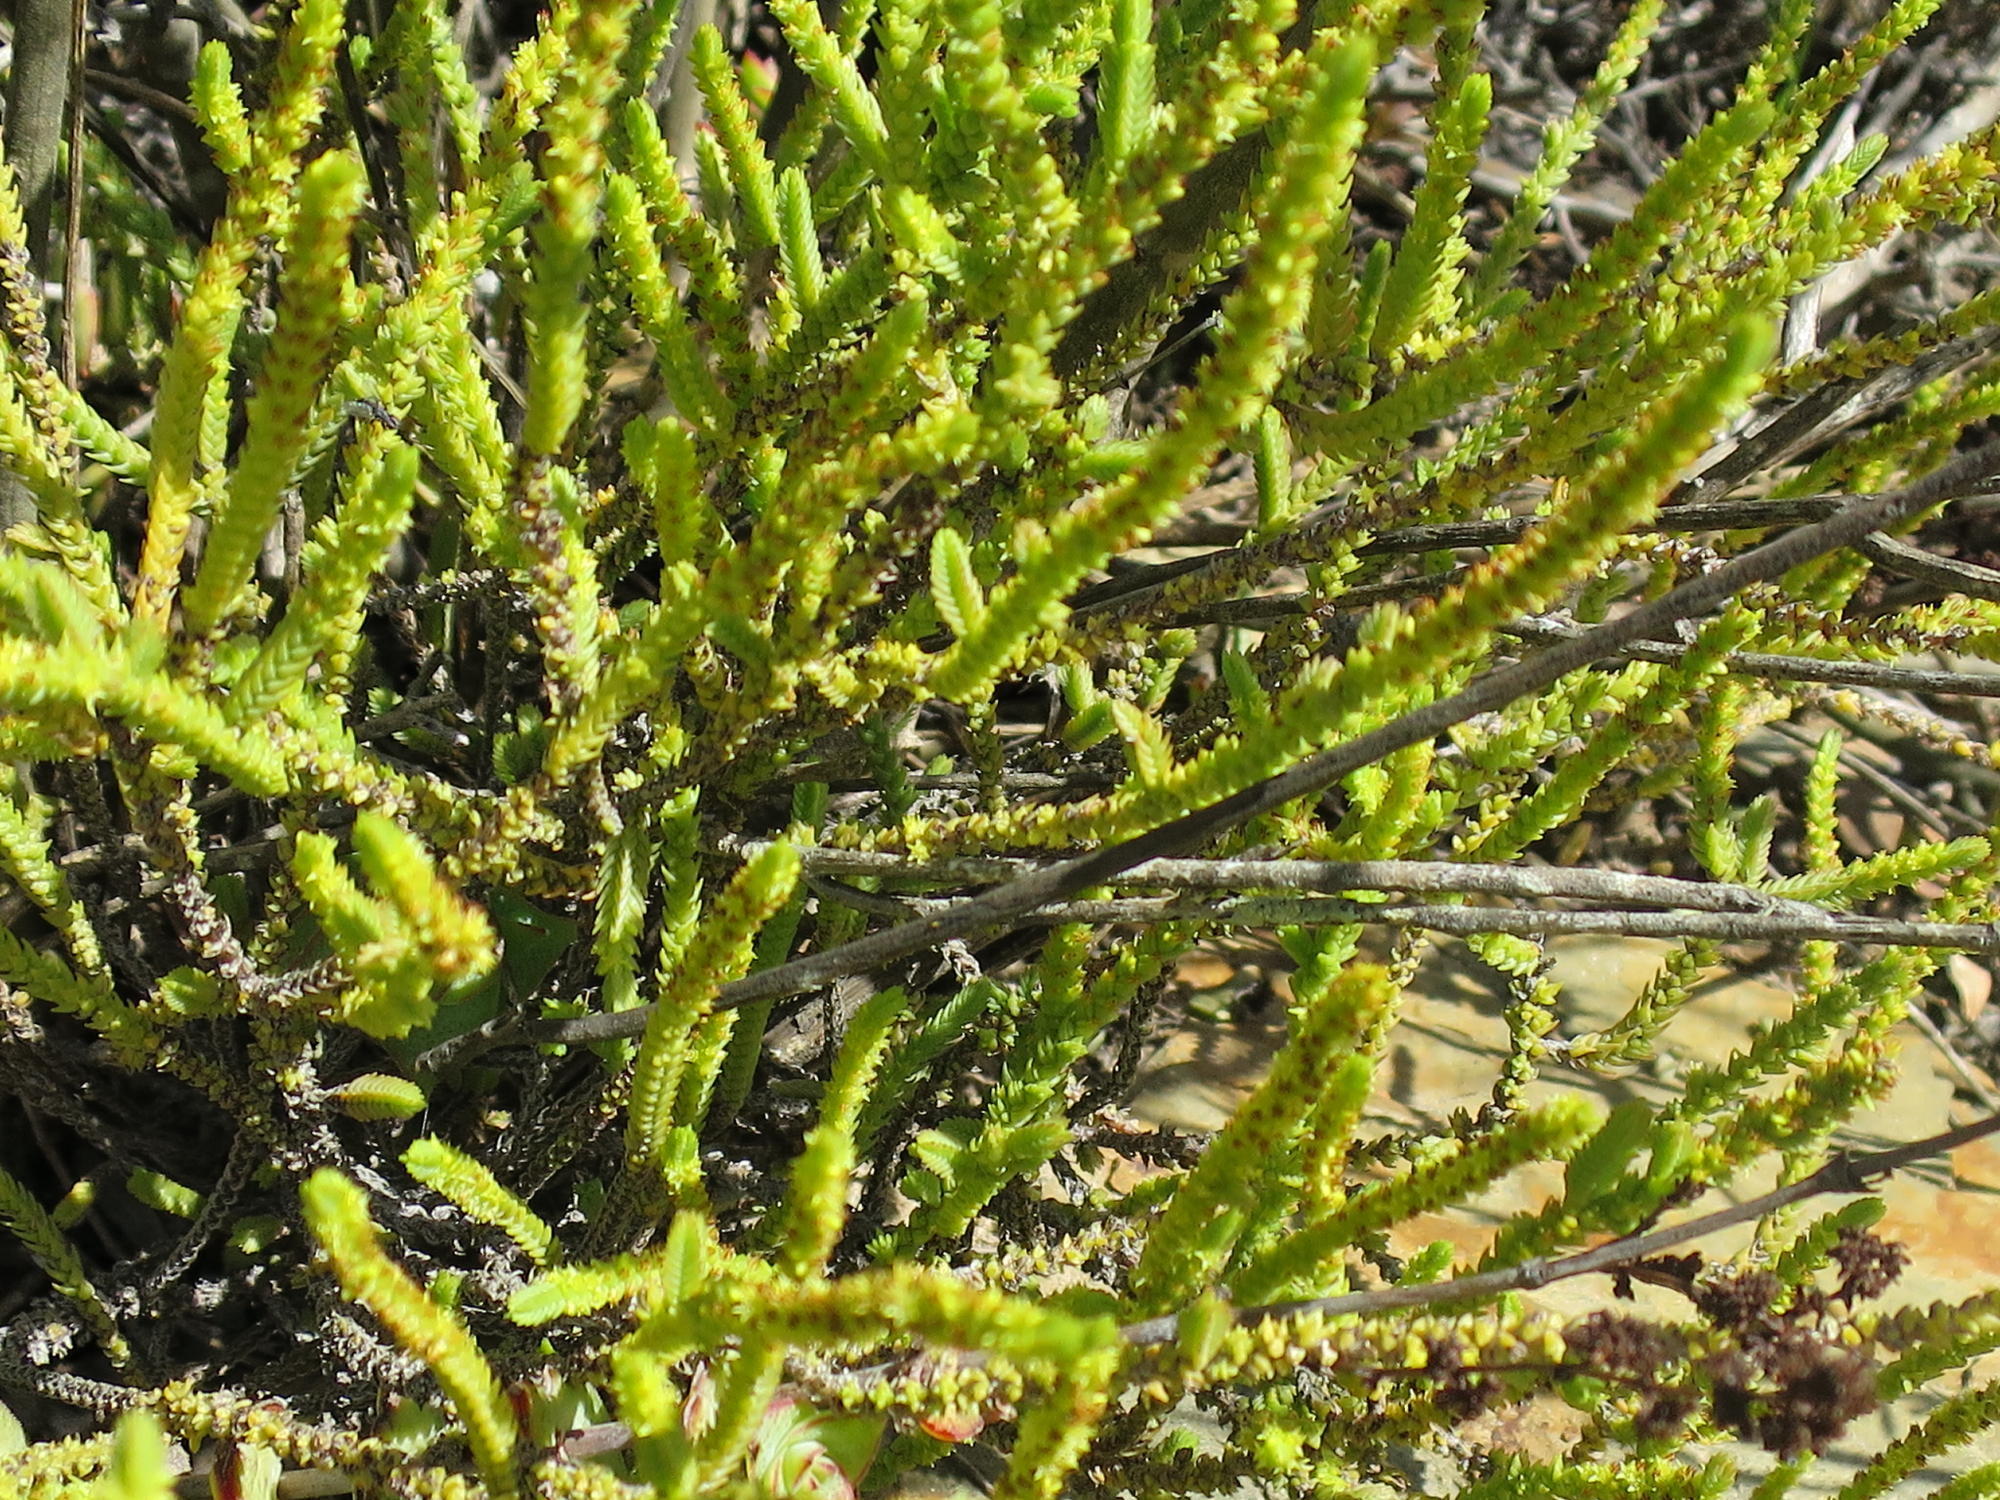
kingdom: Plantae
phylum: Tracheophyta
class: Magnoliopsida
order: Saxifragales
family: Crassulaceae
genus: Crassula
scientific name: Crassula muscosa
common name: Toy-cypress
